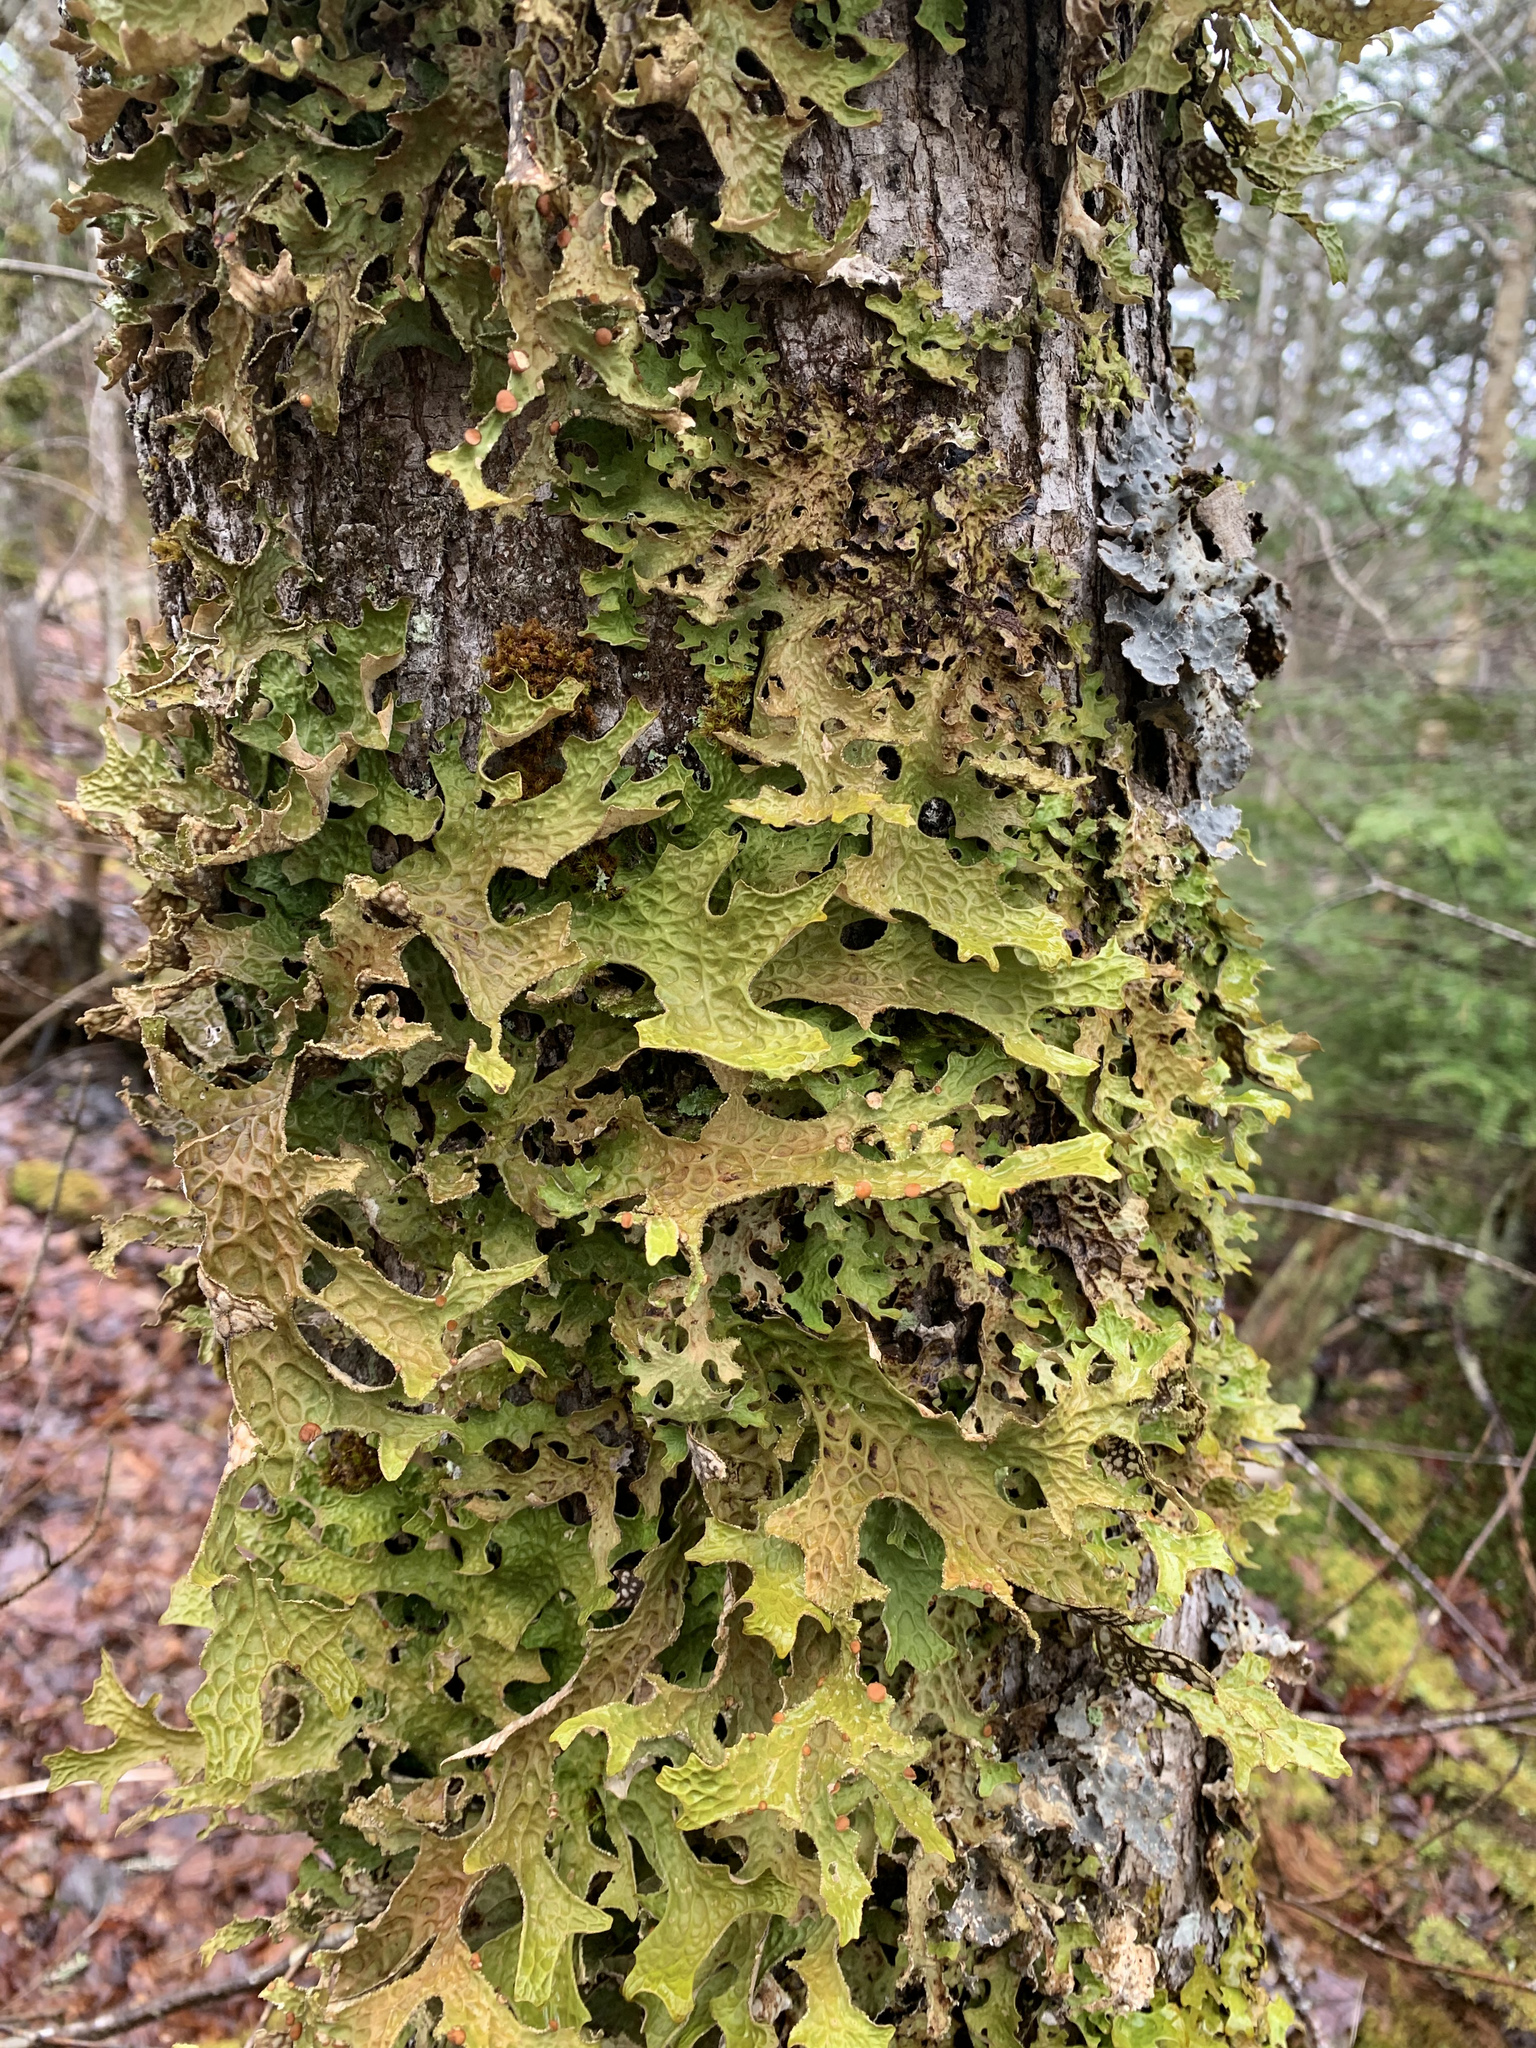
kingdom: Fungi
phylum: Ascomycota
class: Lecanoromycetes
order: Peltigerales
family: Lobariaceae
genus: Lobaria
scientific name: Lobaria pulmonaria
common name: Lungwort
